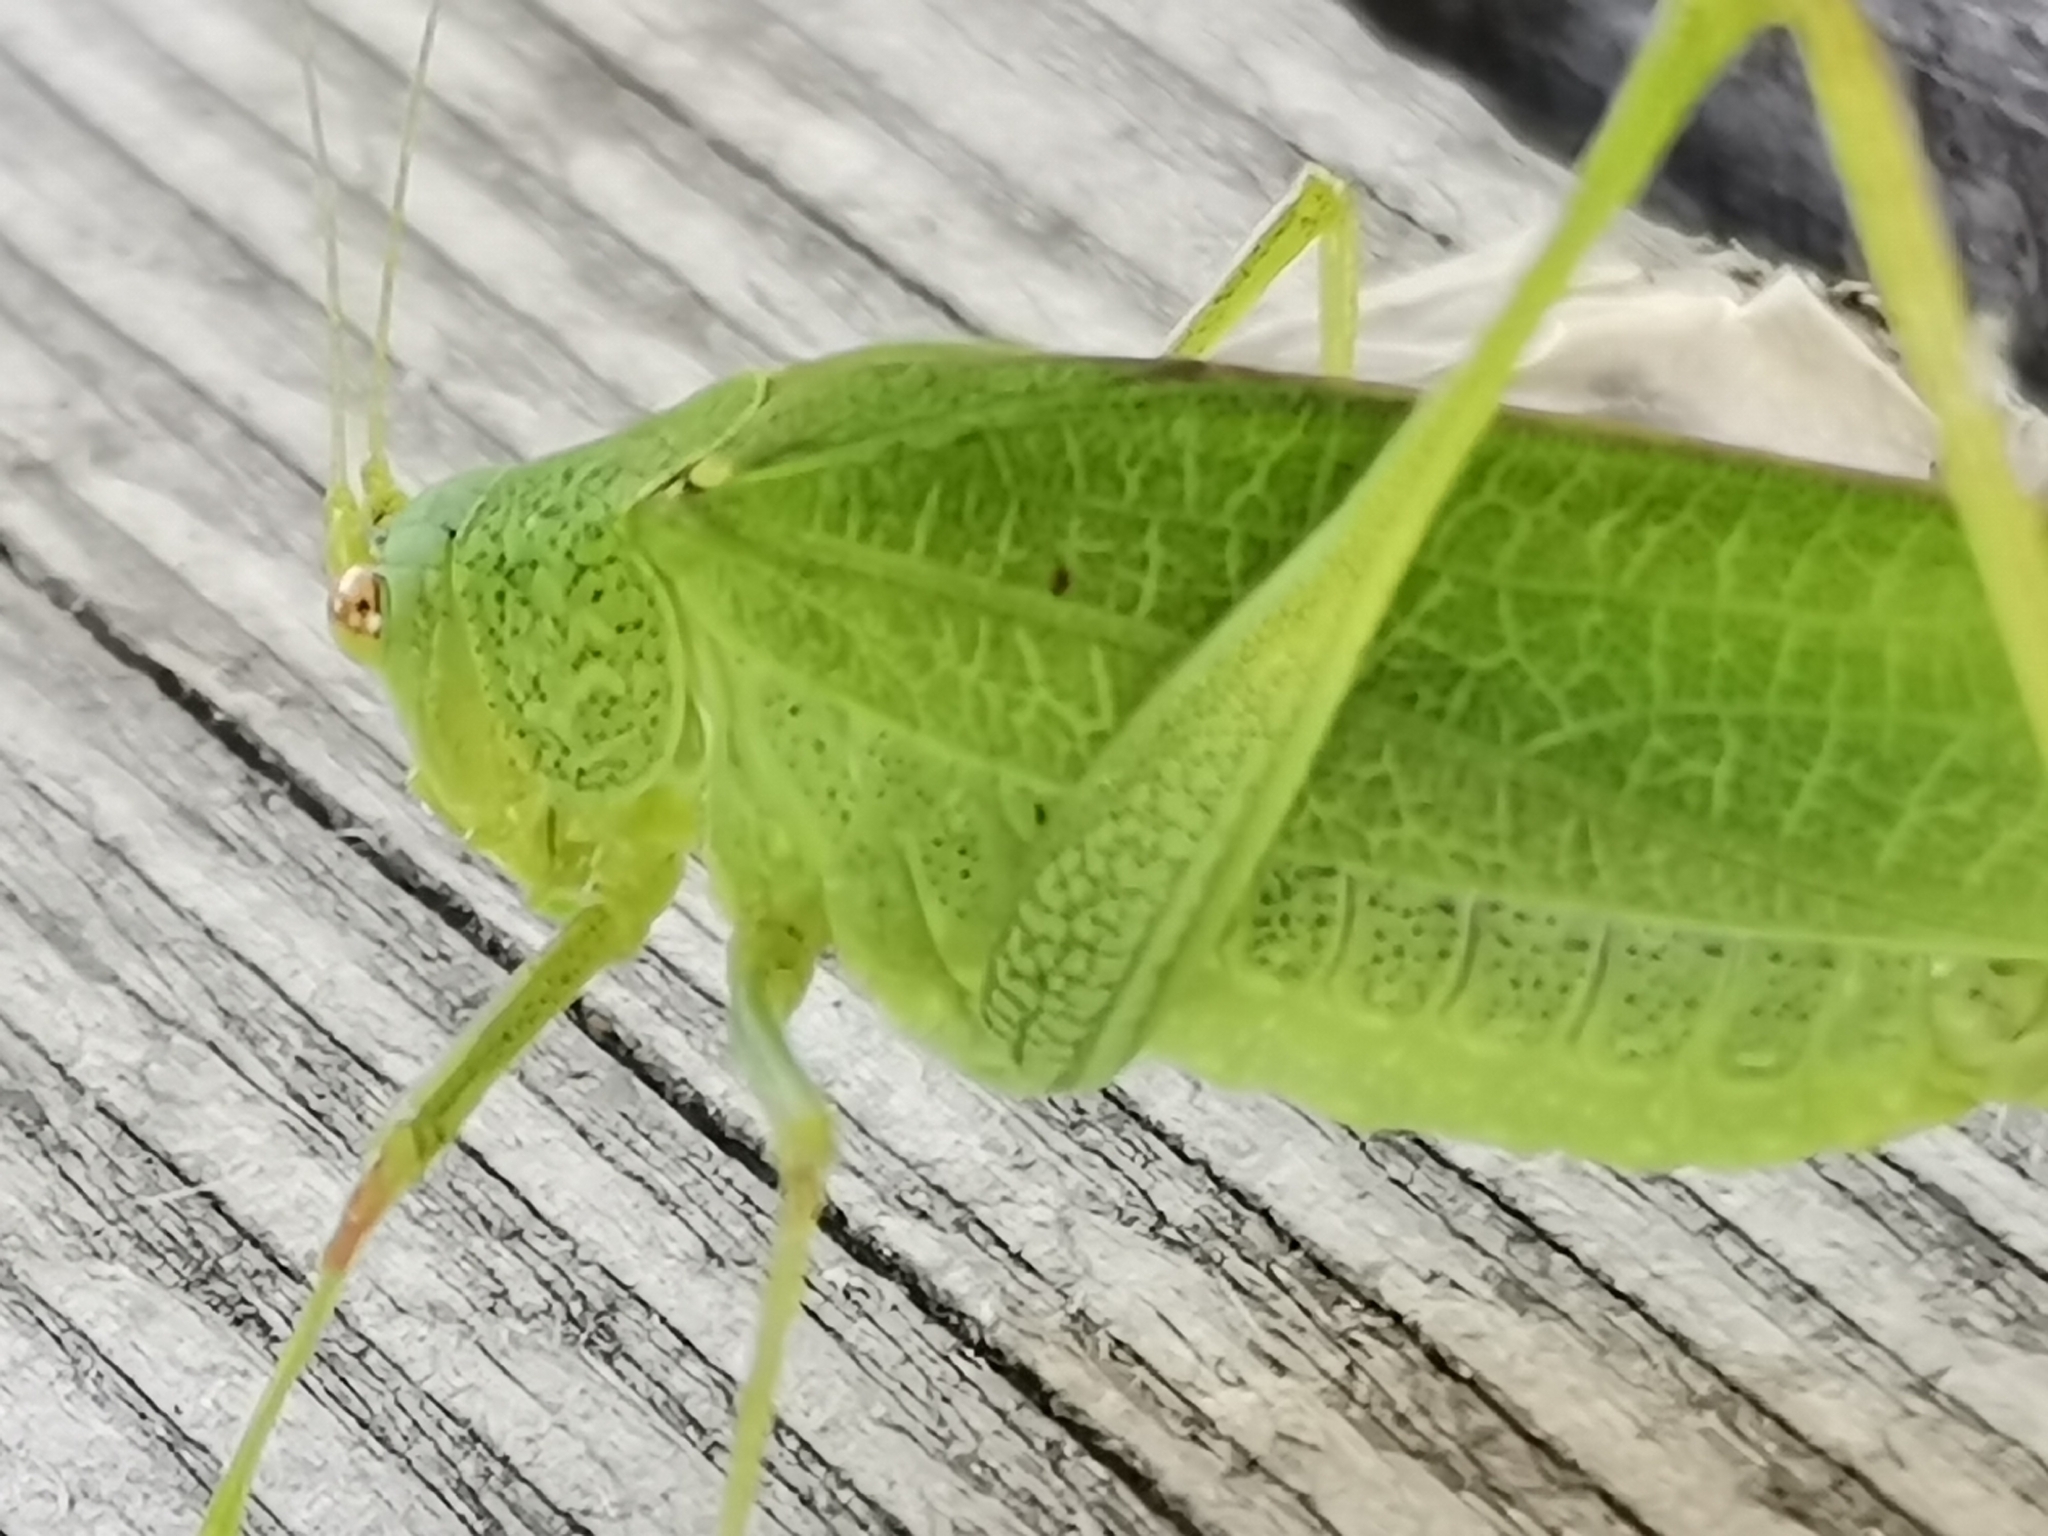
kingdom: Animalia
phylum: Arthropoda
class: Insecta
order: Orthoptera
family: Tettigoniidae
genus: Phaneroptera
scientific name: Phaneroptera nana
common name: Southern sickle bush-cricket
